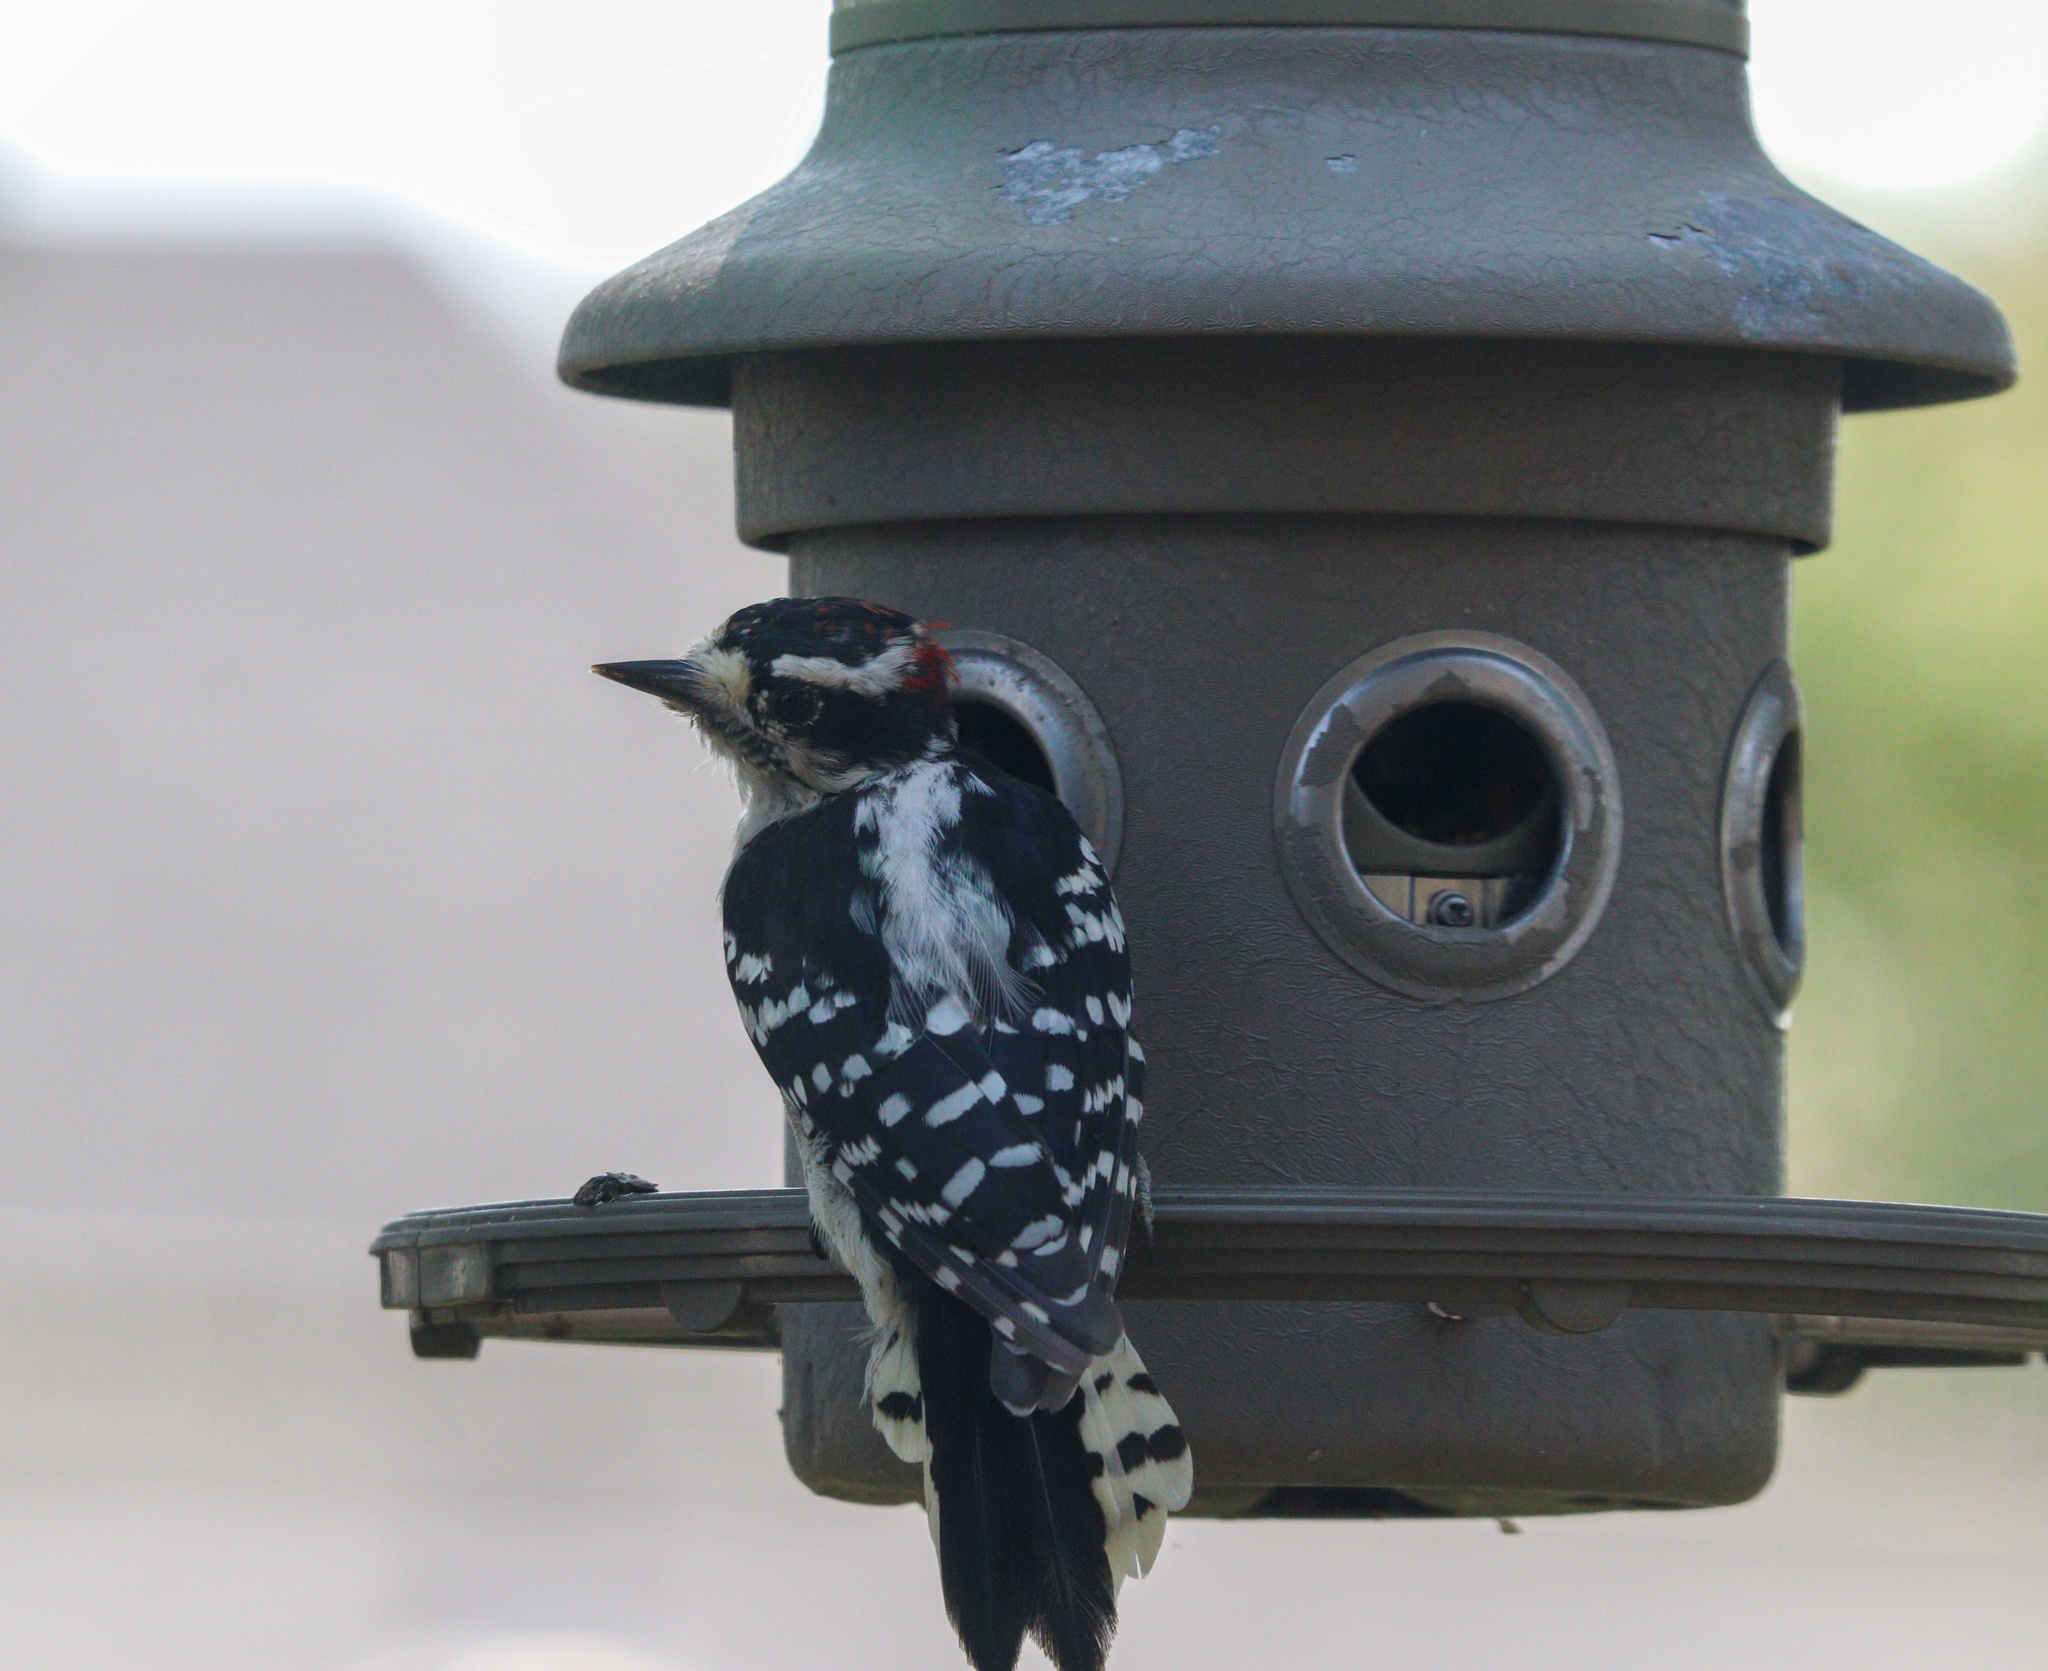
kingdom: Animalia
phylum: Chordata
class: Aves
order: Piciformes
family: Picidae
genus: Dryobates
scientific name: Dryobates pubescens
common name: Downy woodpecker
